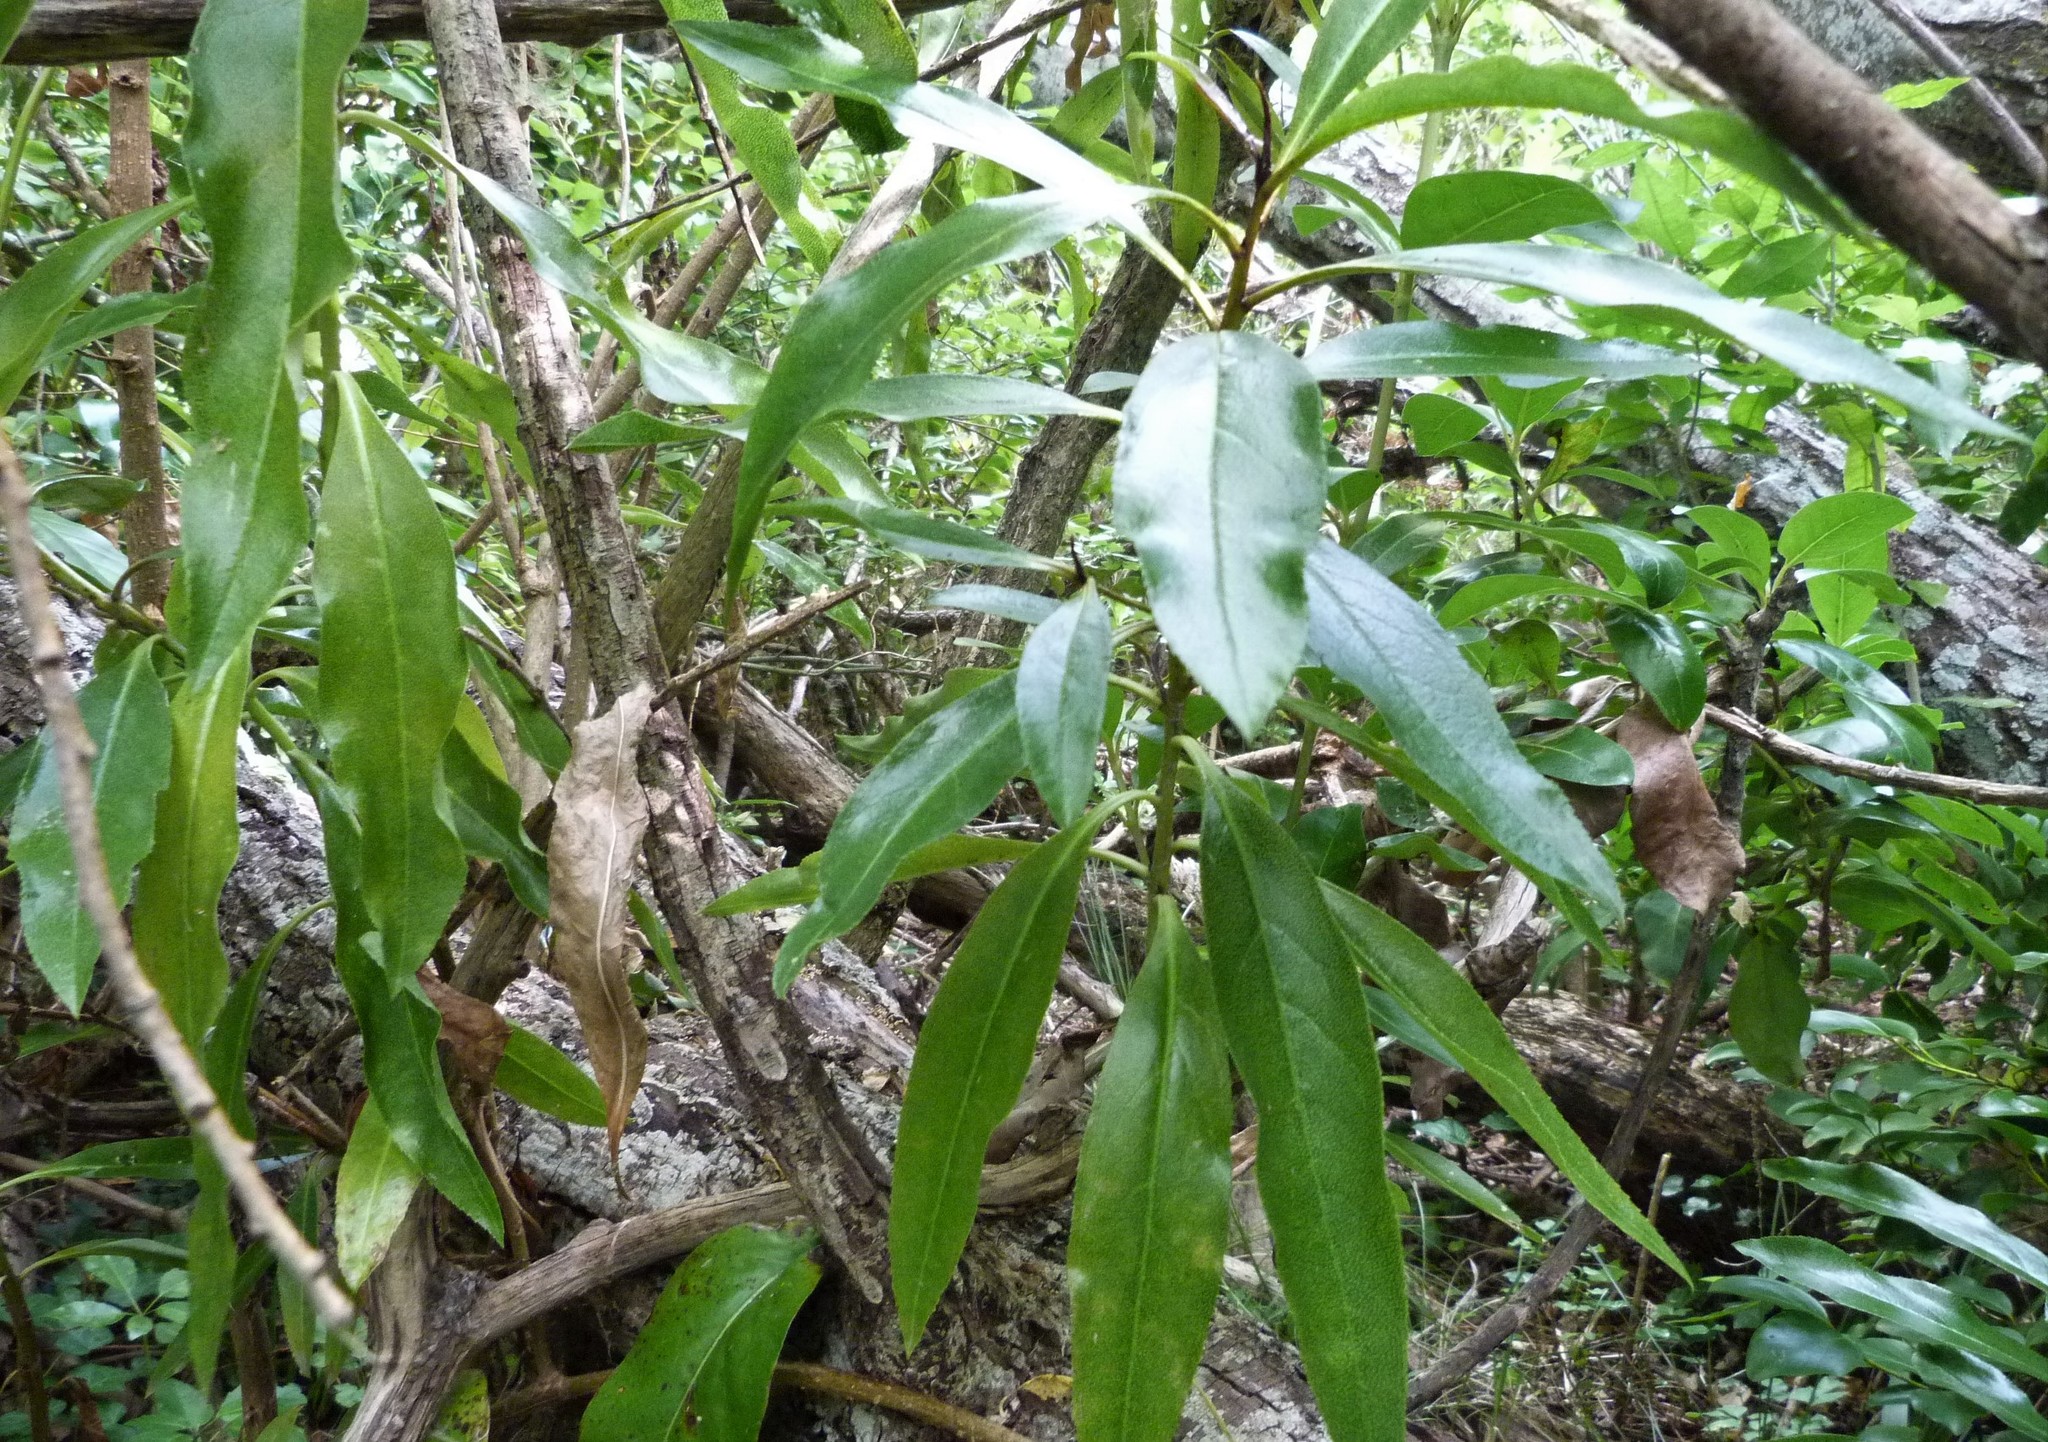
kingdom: Plantae
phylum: Tracheophyta
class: Magnoliopsida
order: Lamiales
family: Scrophulariaceae
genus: Myoporum
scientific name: Myoporum laetum
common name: Ngaio tree
